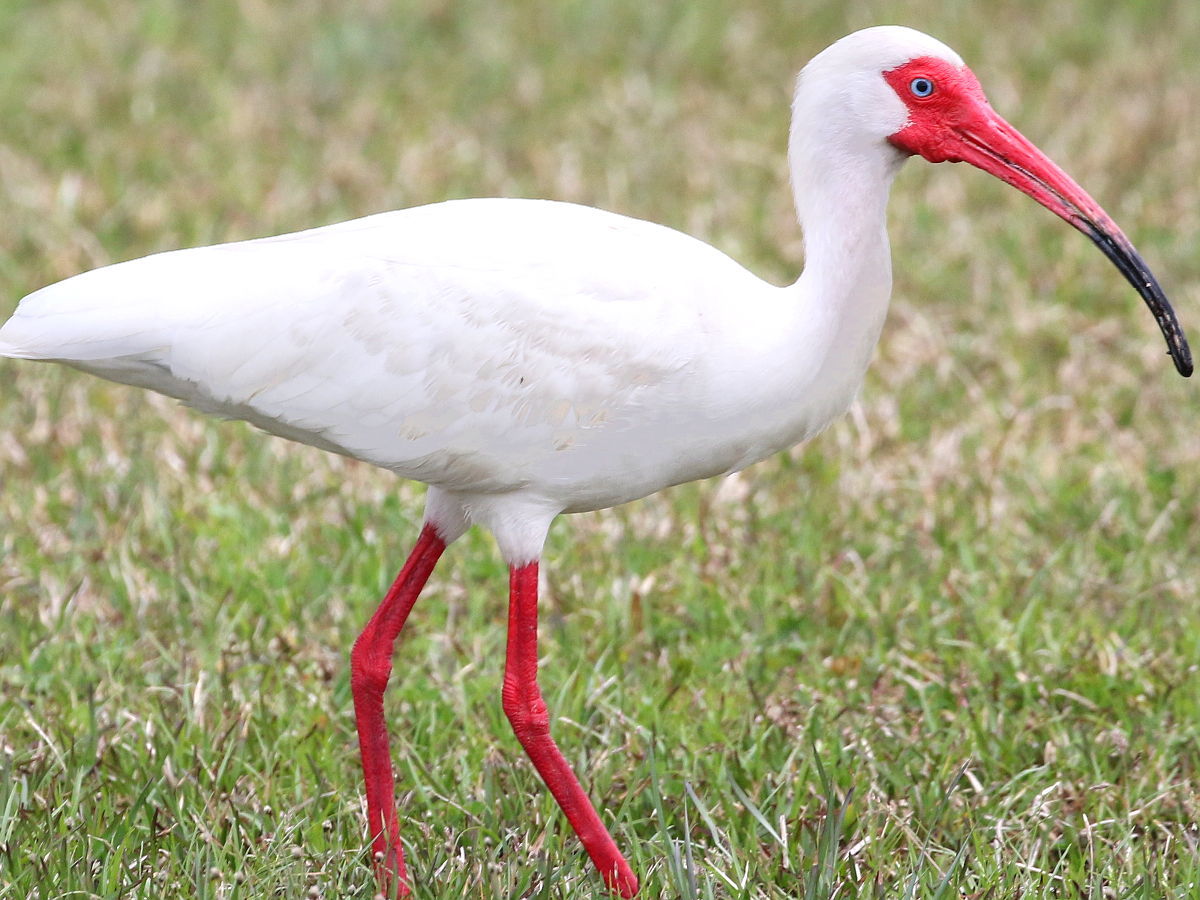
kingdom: Animalia
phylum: Chordata
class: Aves
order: Pelecaniformes
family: Threskiornithidae
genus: Eudocimus
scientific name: Eudocimus albus
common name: White ibis
